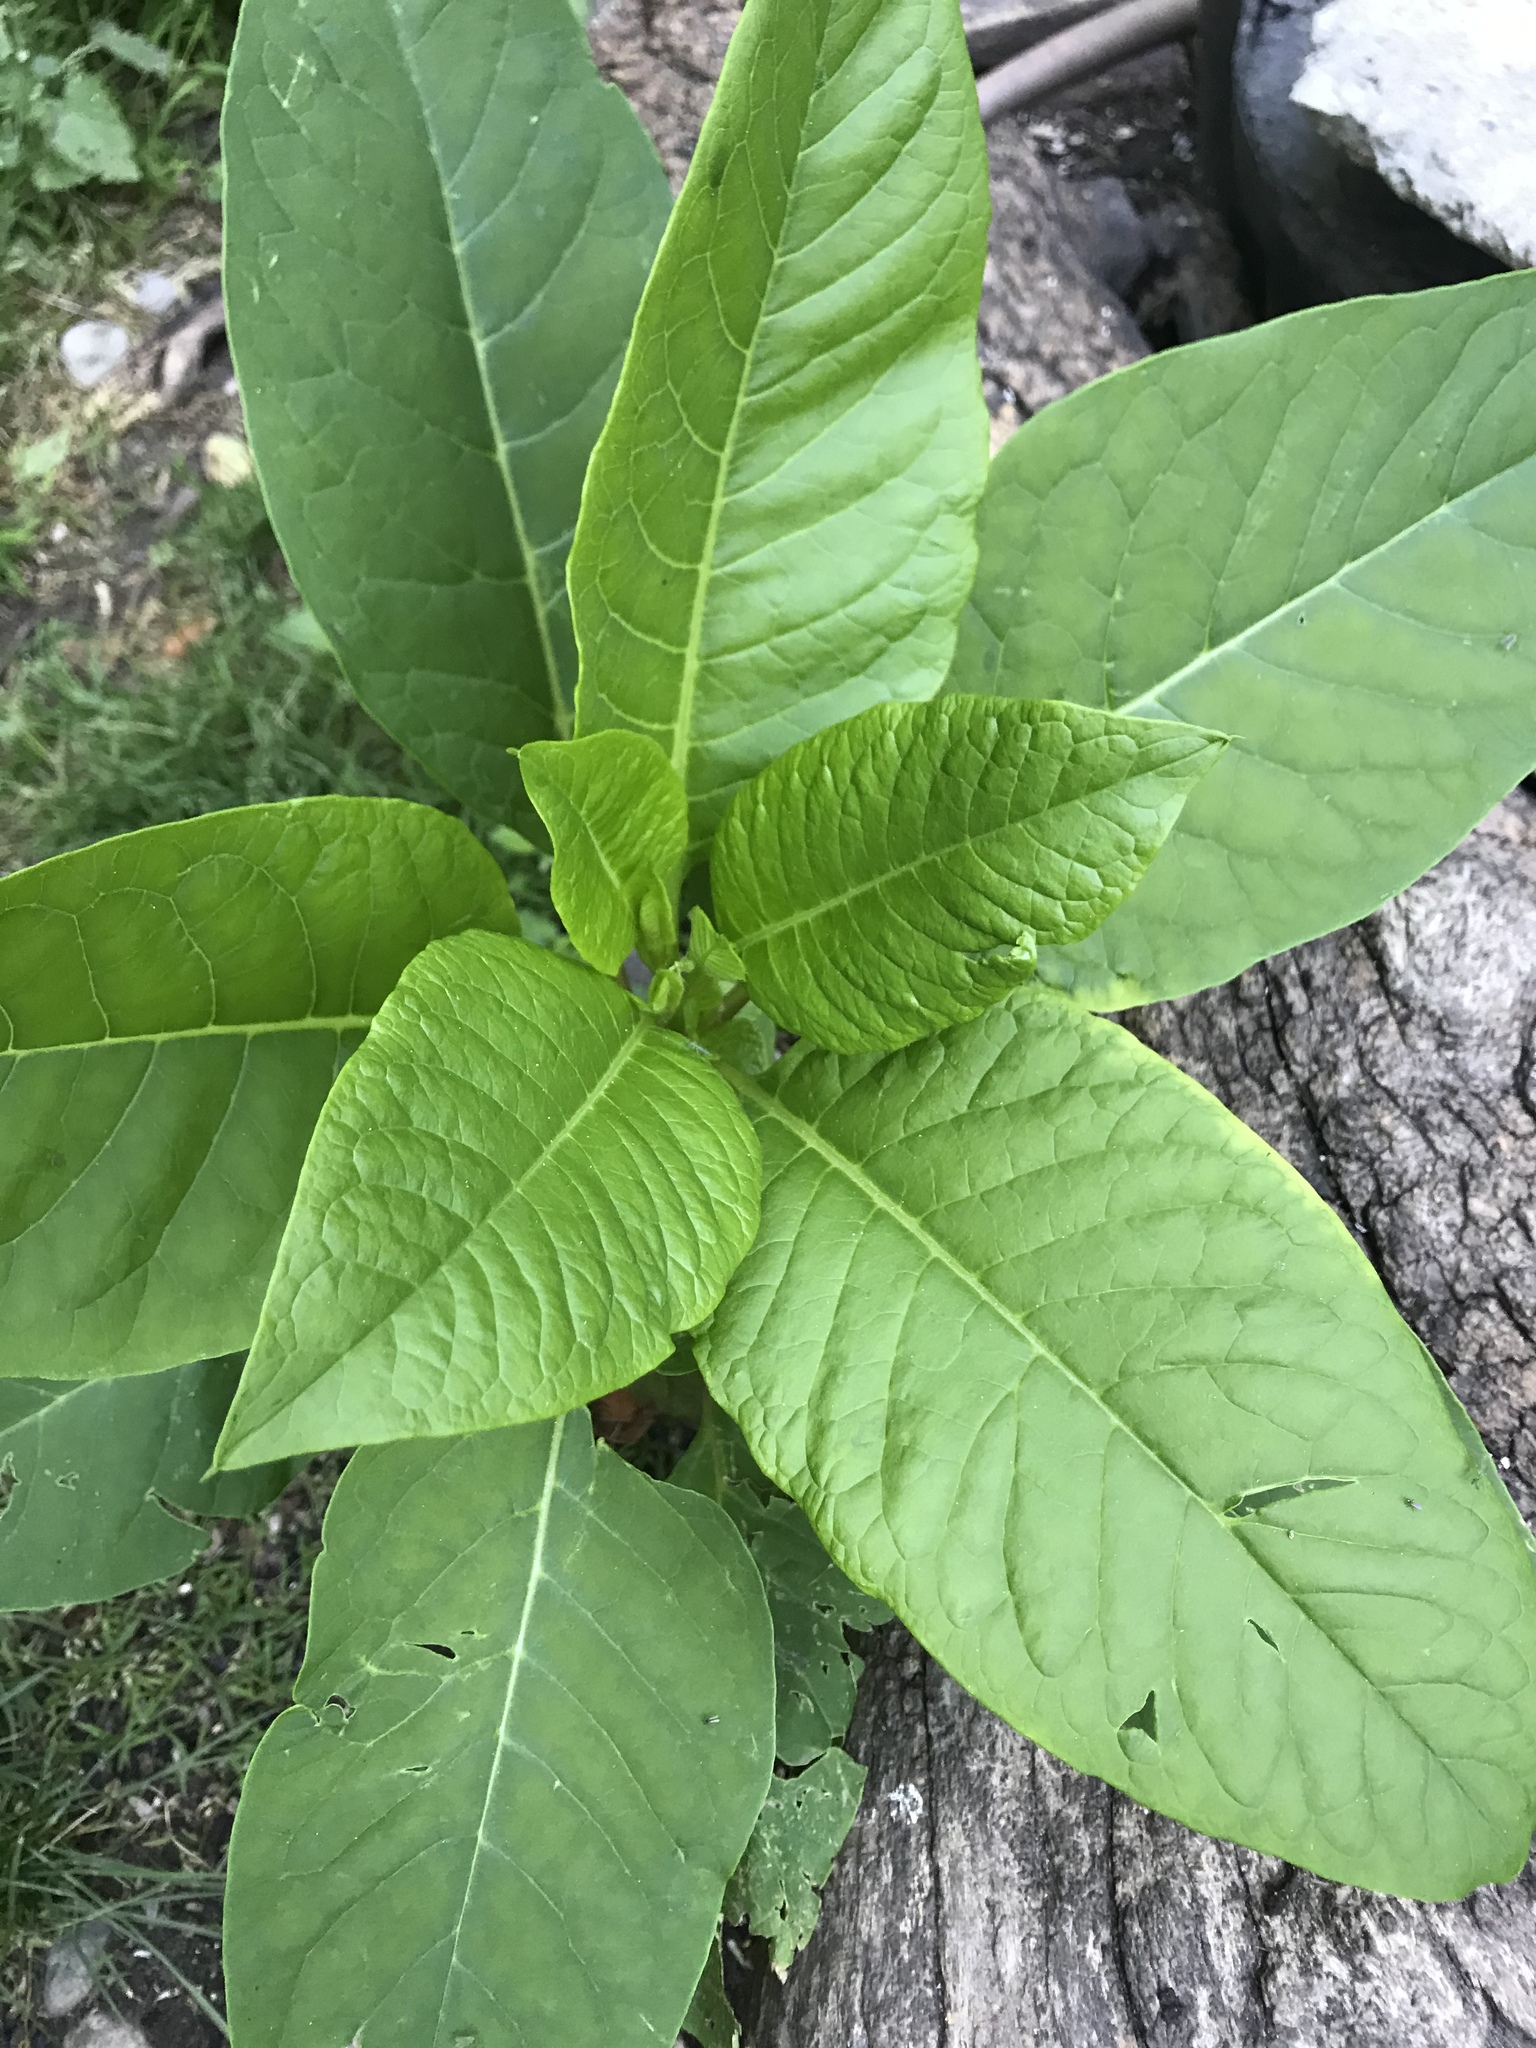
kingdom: Plantae
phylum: Tracheophyta
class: Magnoliopsida
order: Caryophyllales
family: Phytolaccaceae
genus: Phytolacca
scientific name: Phytolacca americana
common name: American pokeweed
